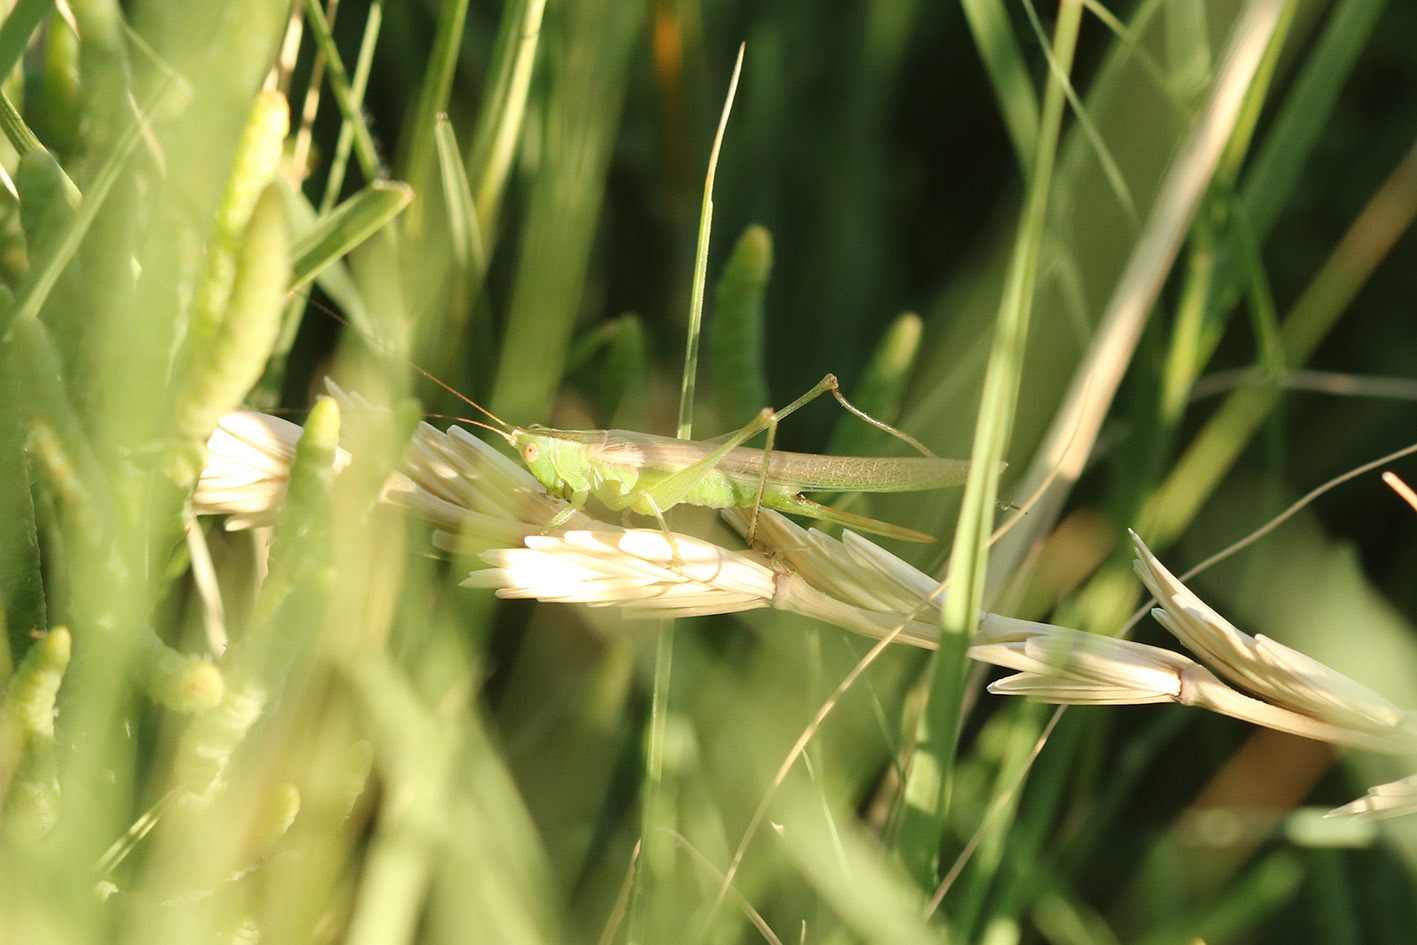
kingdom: Animalia
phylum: Arthropoda
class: Insecta
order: Orthoptera
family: Tettigoniidae
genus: Conocephalus
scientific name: Conocephalus longipes
